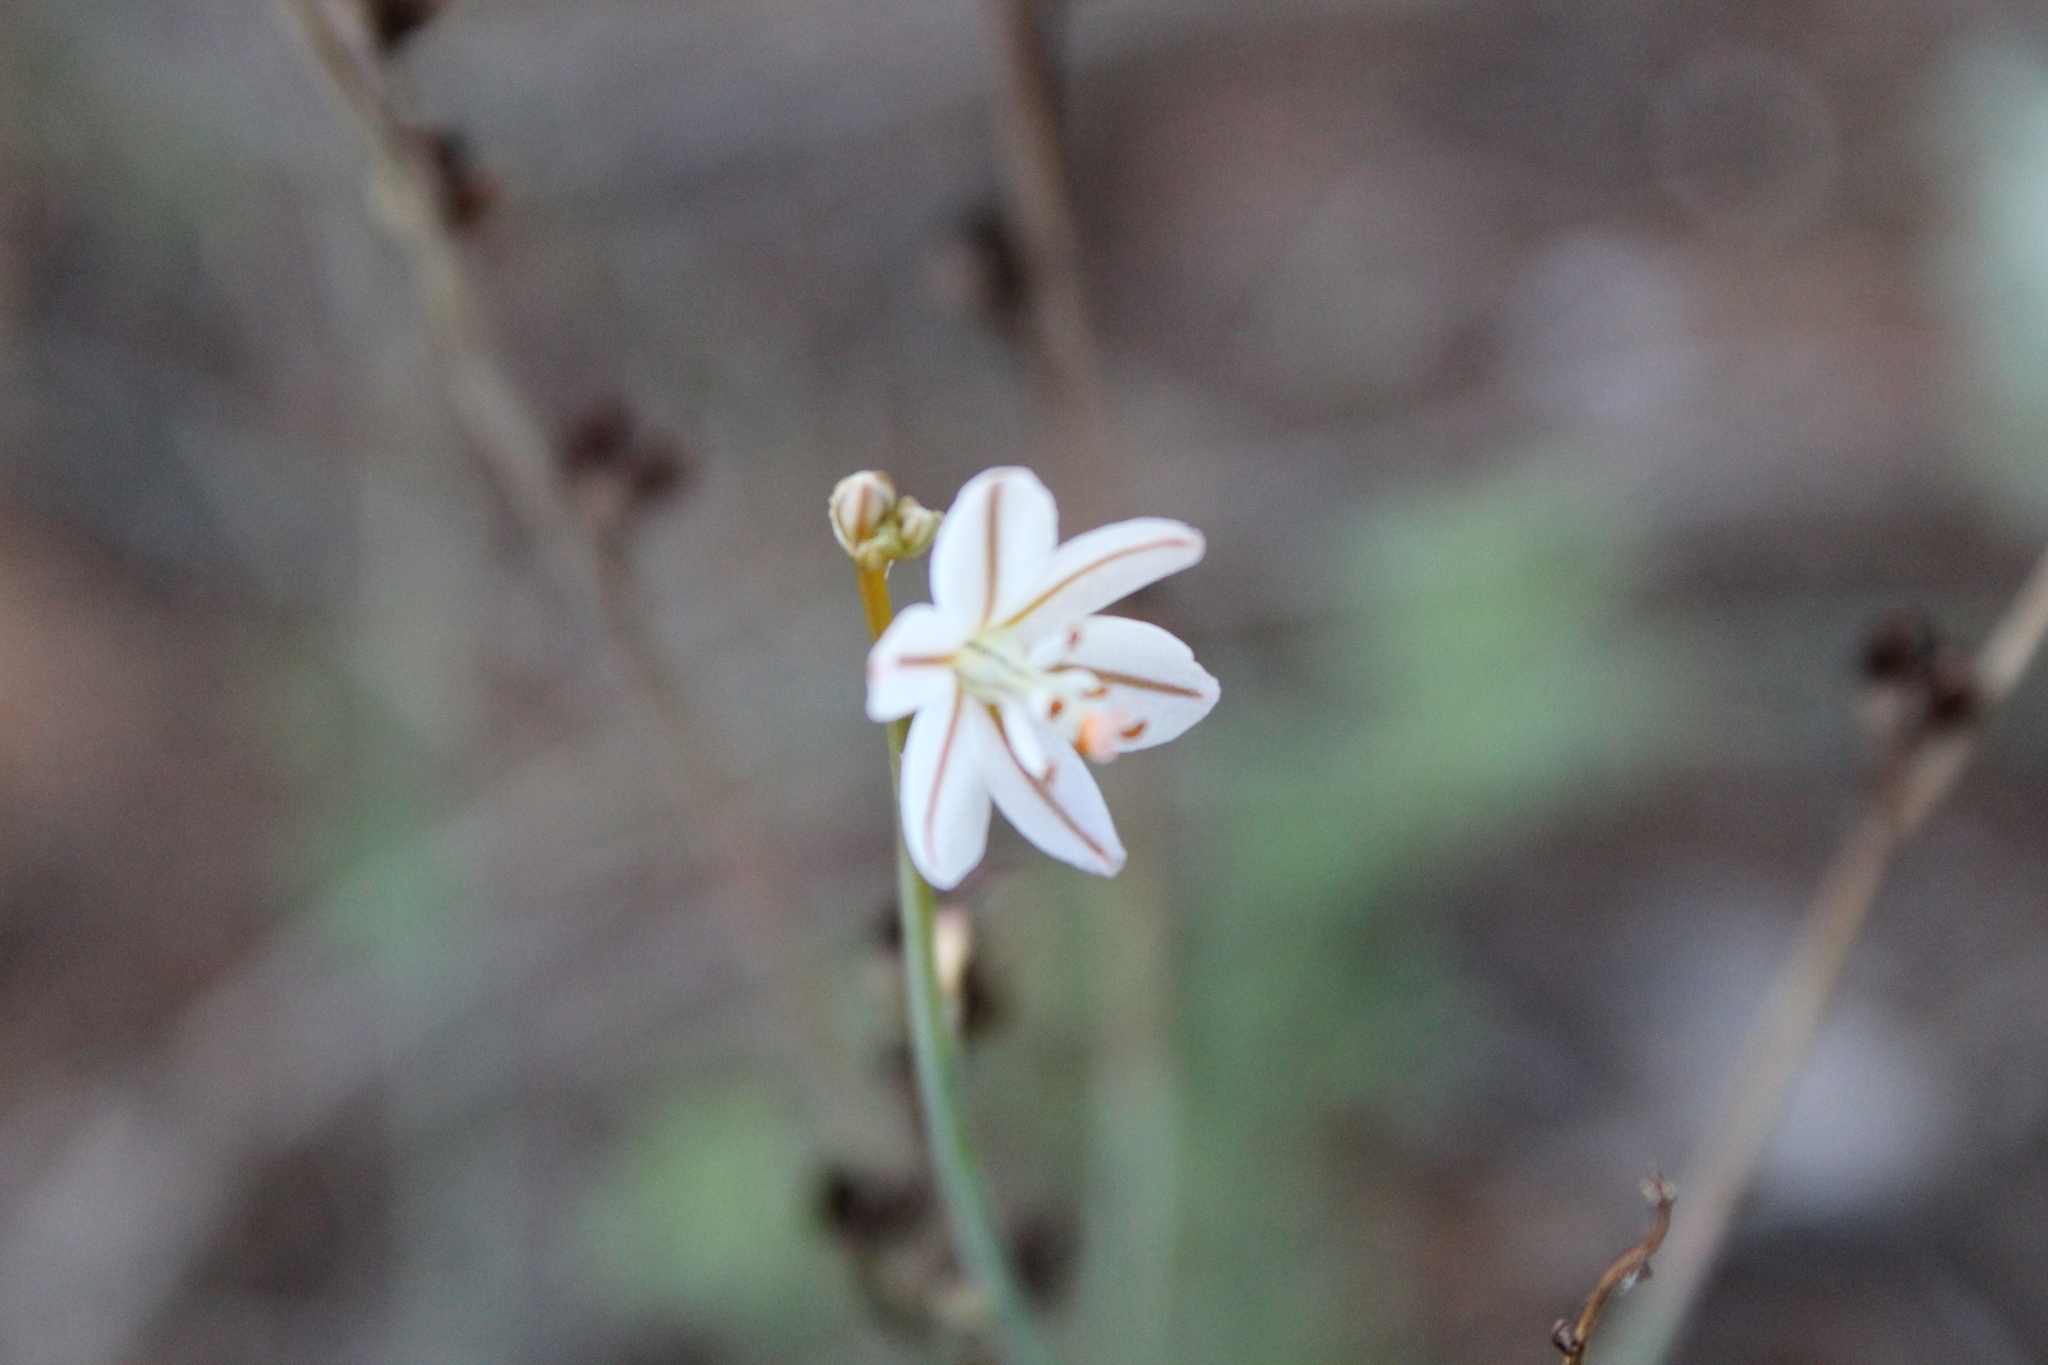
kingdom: Plantae
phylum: Tracheophyta
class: Liliopsida
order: Asparagales
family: Asphodelaceae
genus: Asphodelus
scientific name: Asphodelus fistulosus
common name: Onionweed
